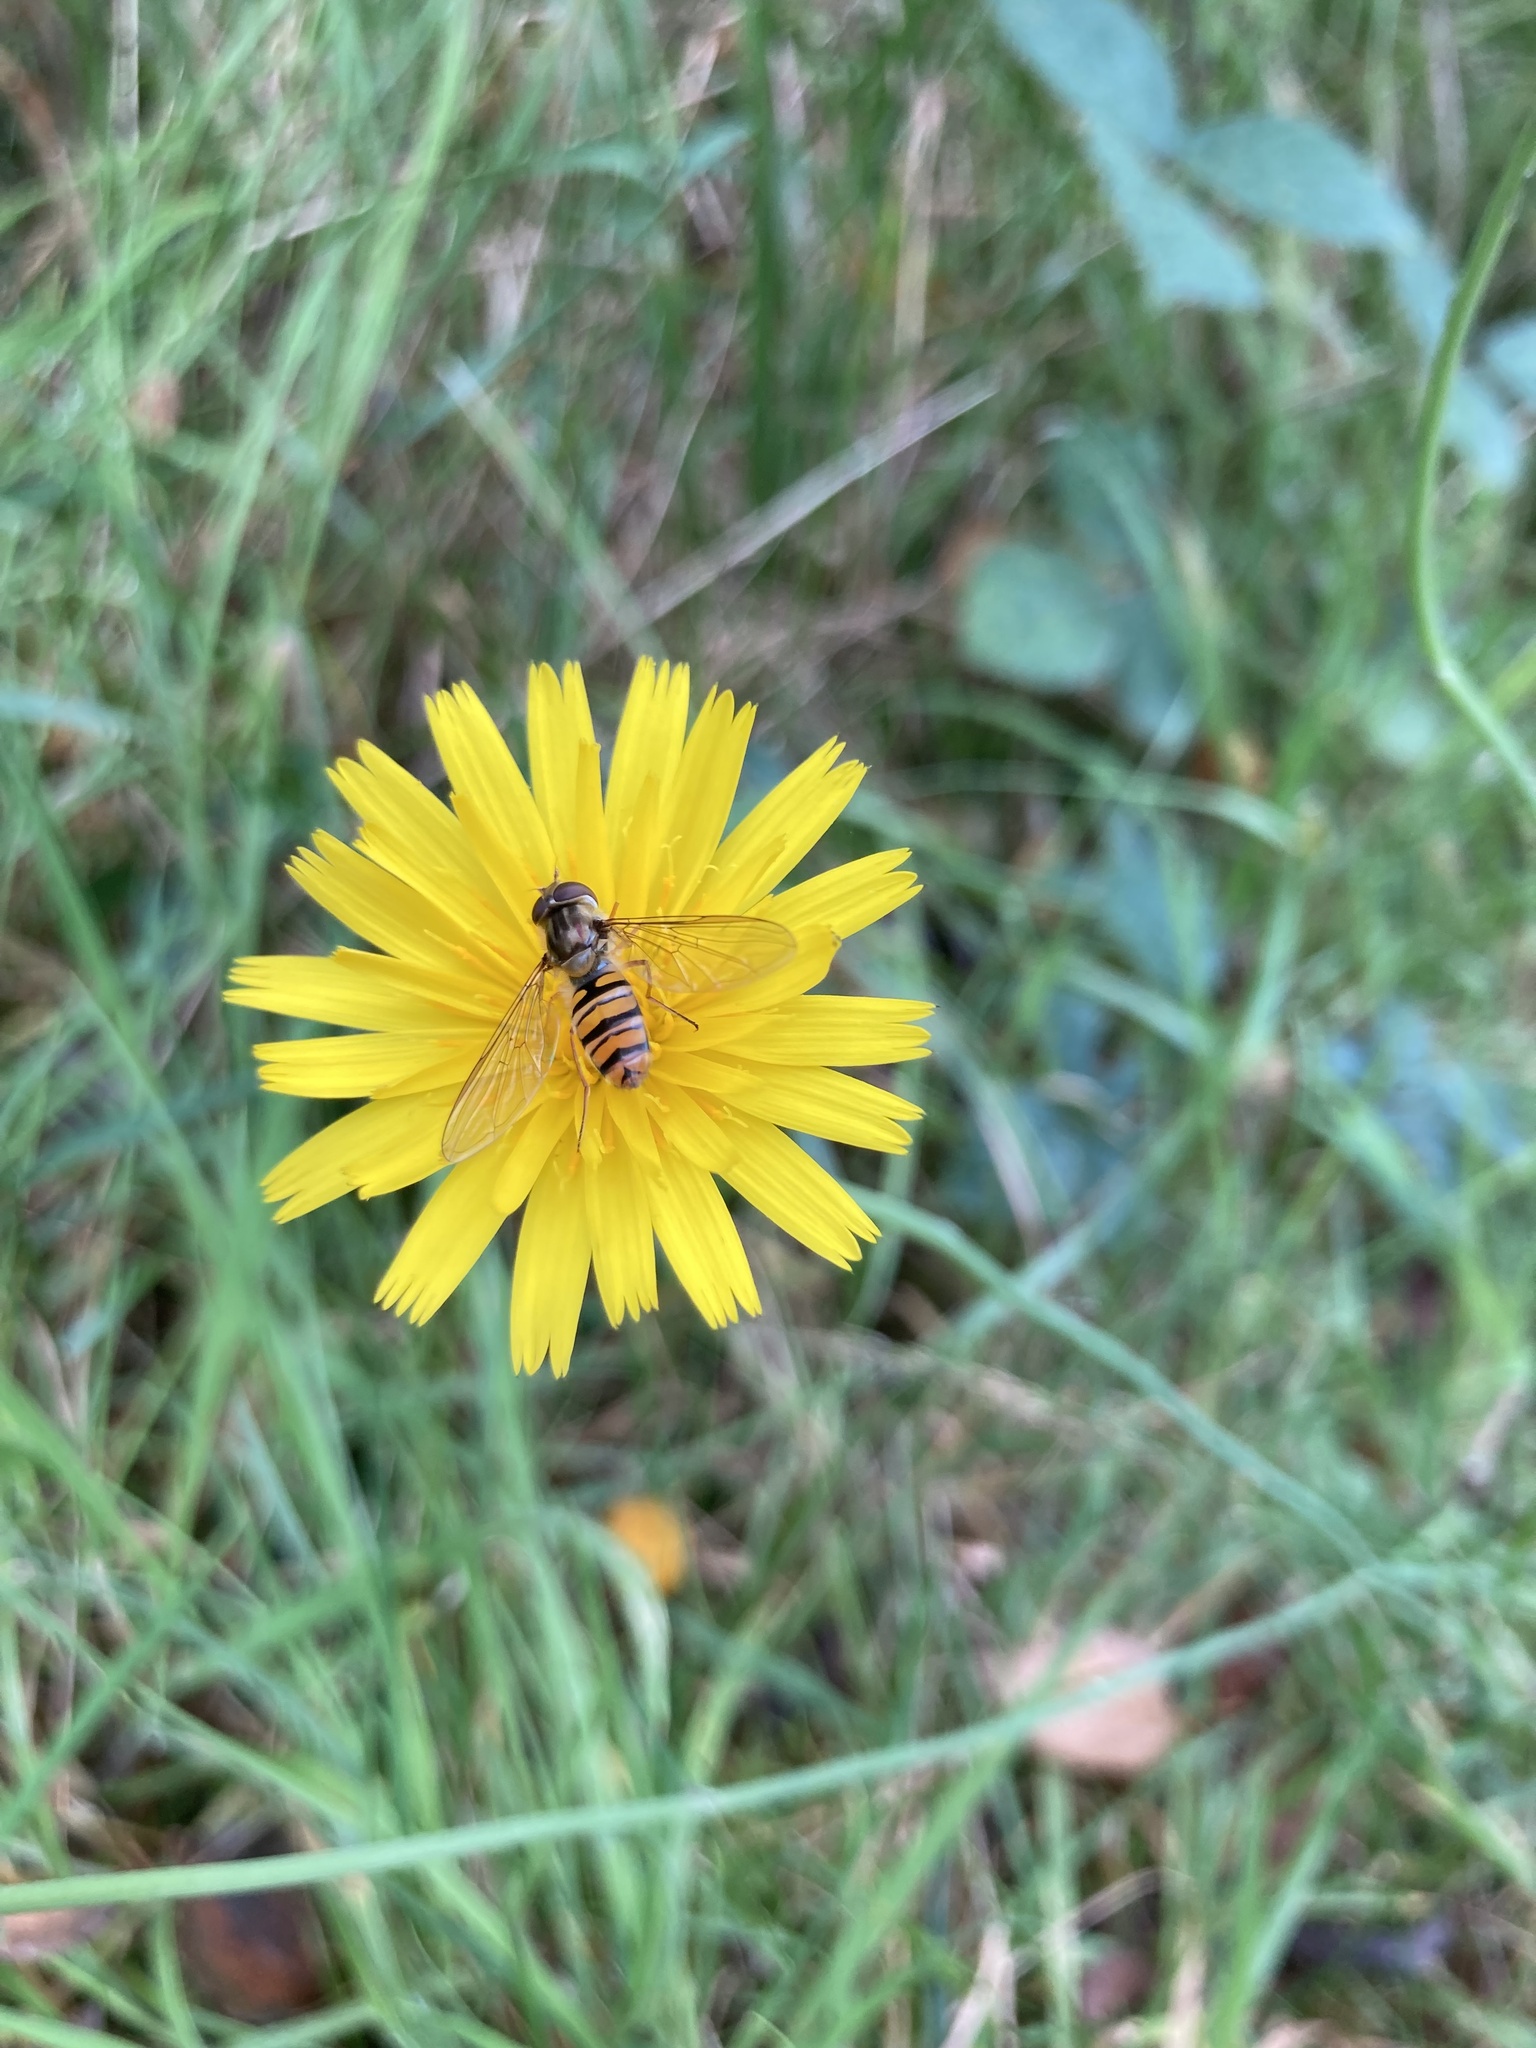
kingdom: Animalia
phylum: Arthropoda
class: Insecta
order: Diptera
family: Syrphidae
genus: Episyrphus
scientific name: Episyrphus balteatus
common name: Marmalade hoverfly
